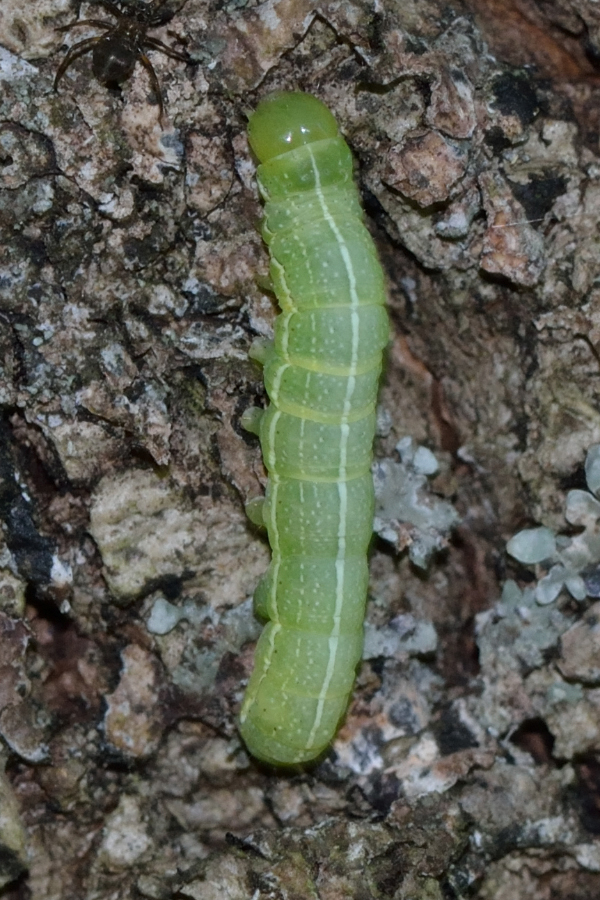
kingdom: Animalia
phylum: Arthropoda
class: Insecta
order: Lepidoptera
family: Noctuidae
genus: Orthosia
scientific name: Orthosia incerta
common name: Clouded drab
